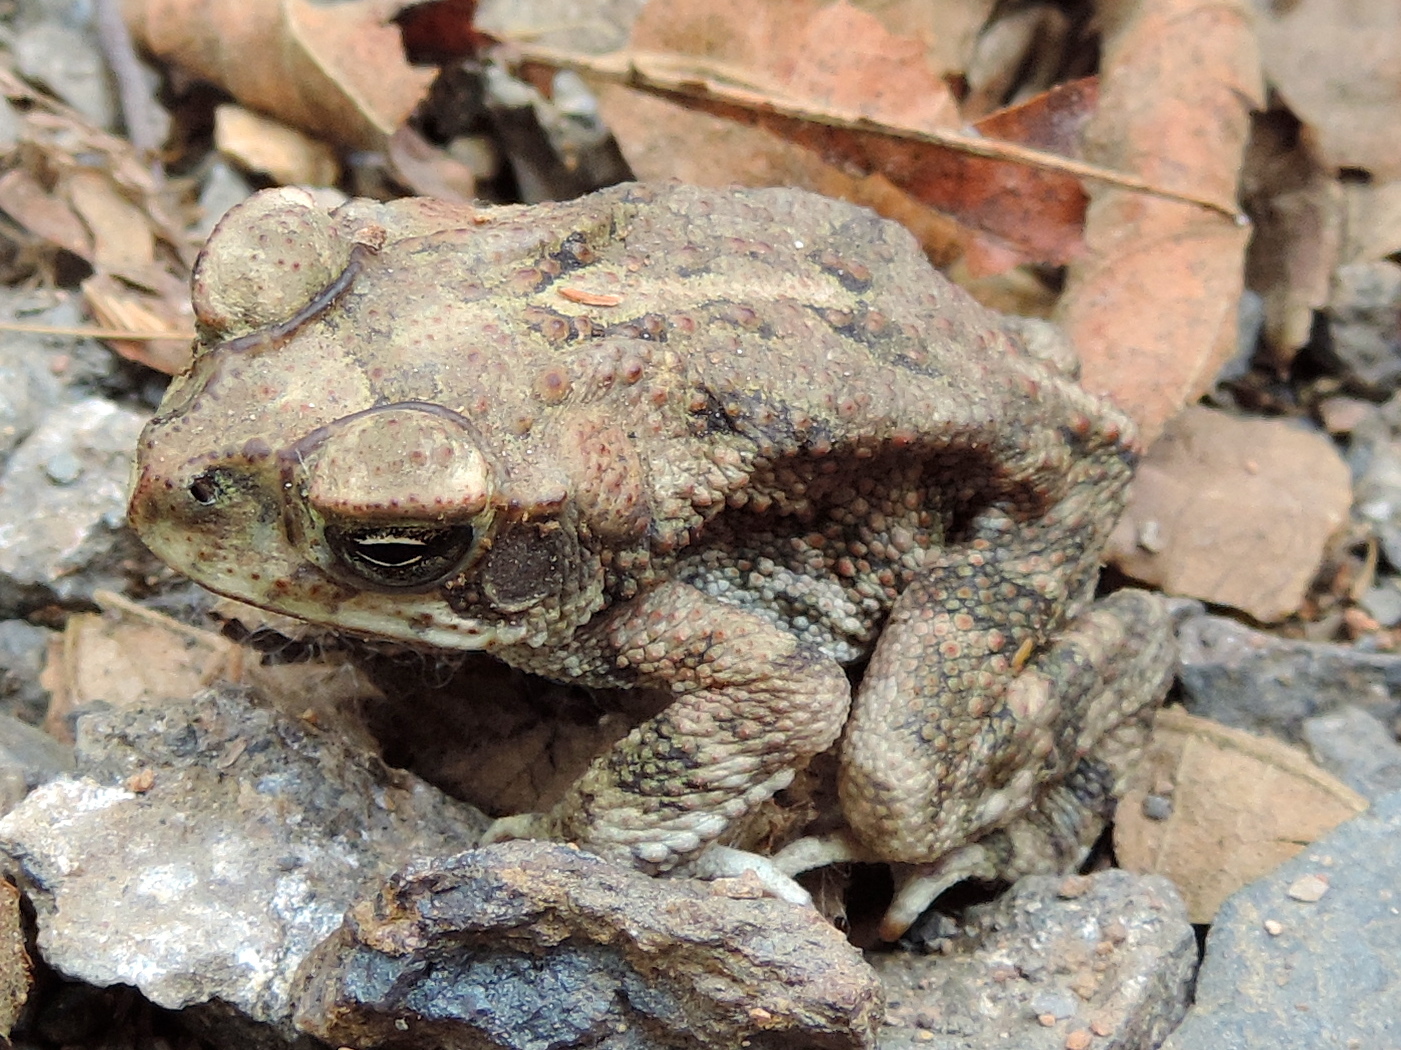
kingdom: Animalia
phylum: Chordata
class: Amphibia
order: Anura
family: Bufonidae
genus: Incilius
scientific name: Incilius mazatlanensis
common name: Sinaloa toad
